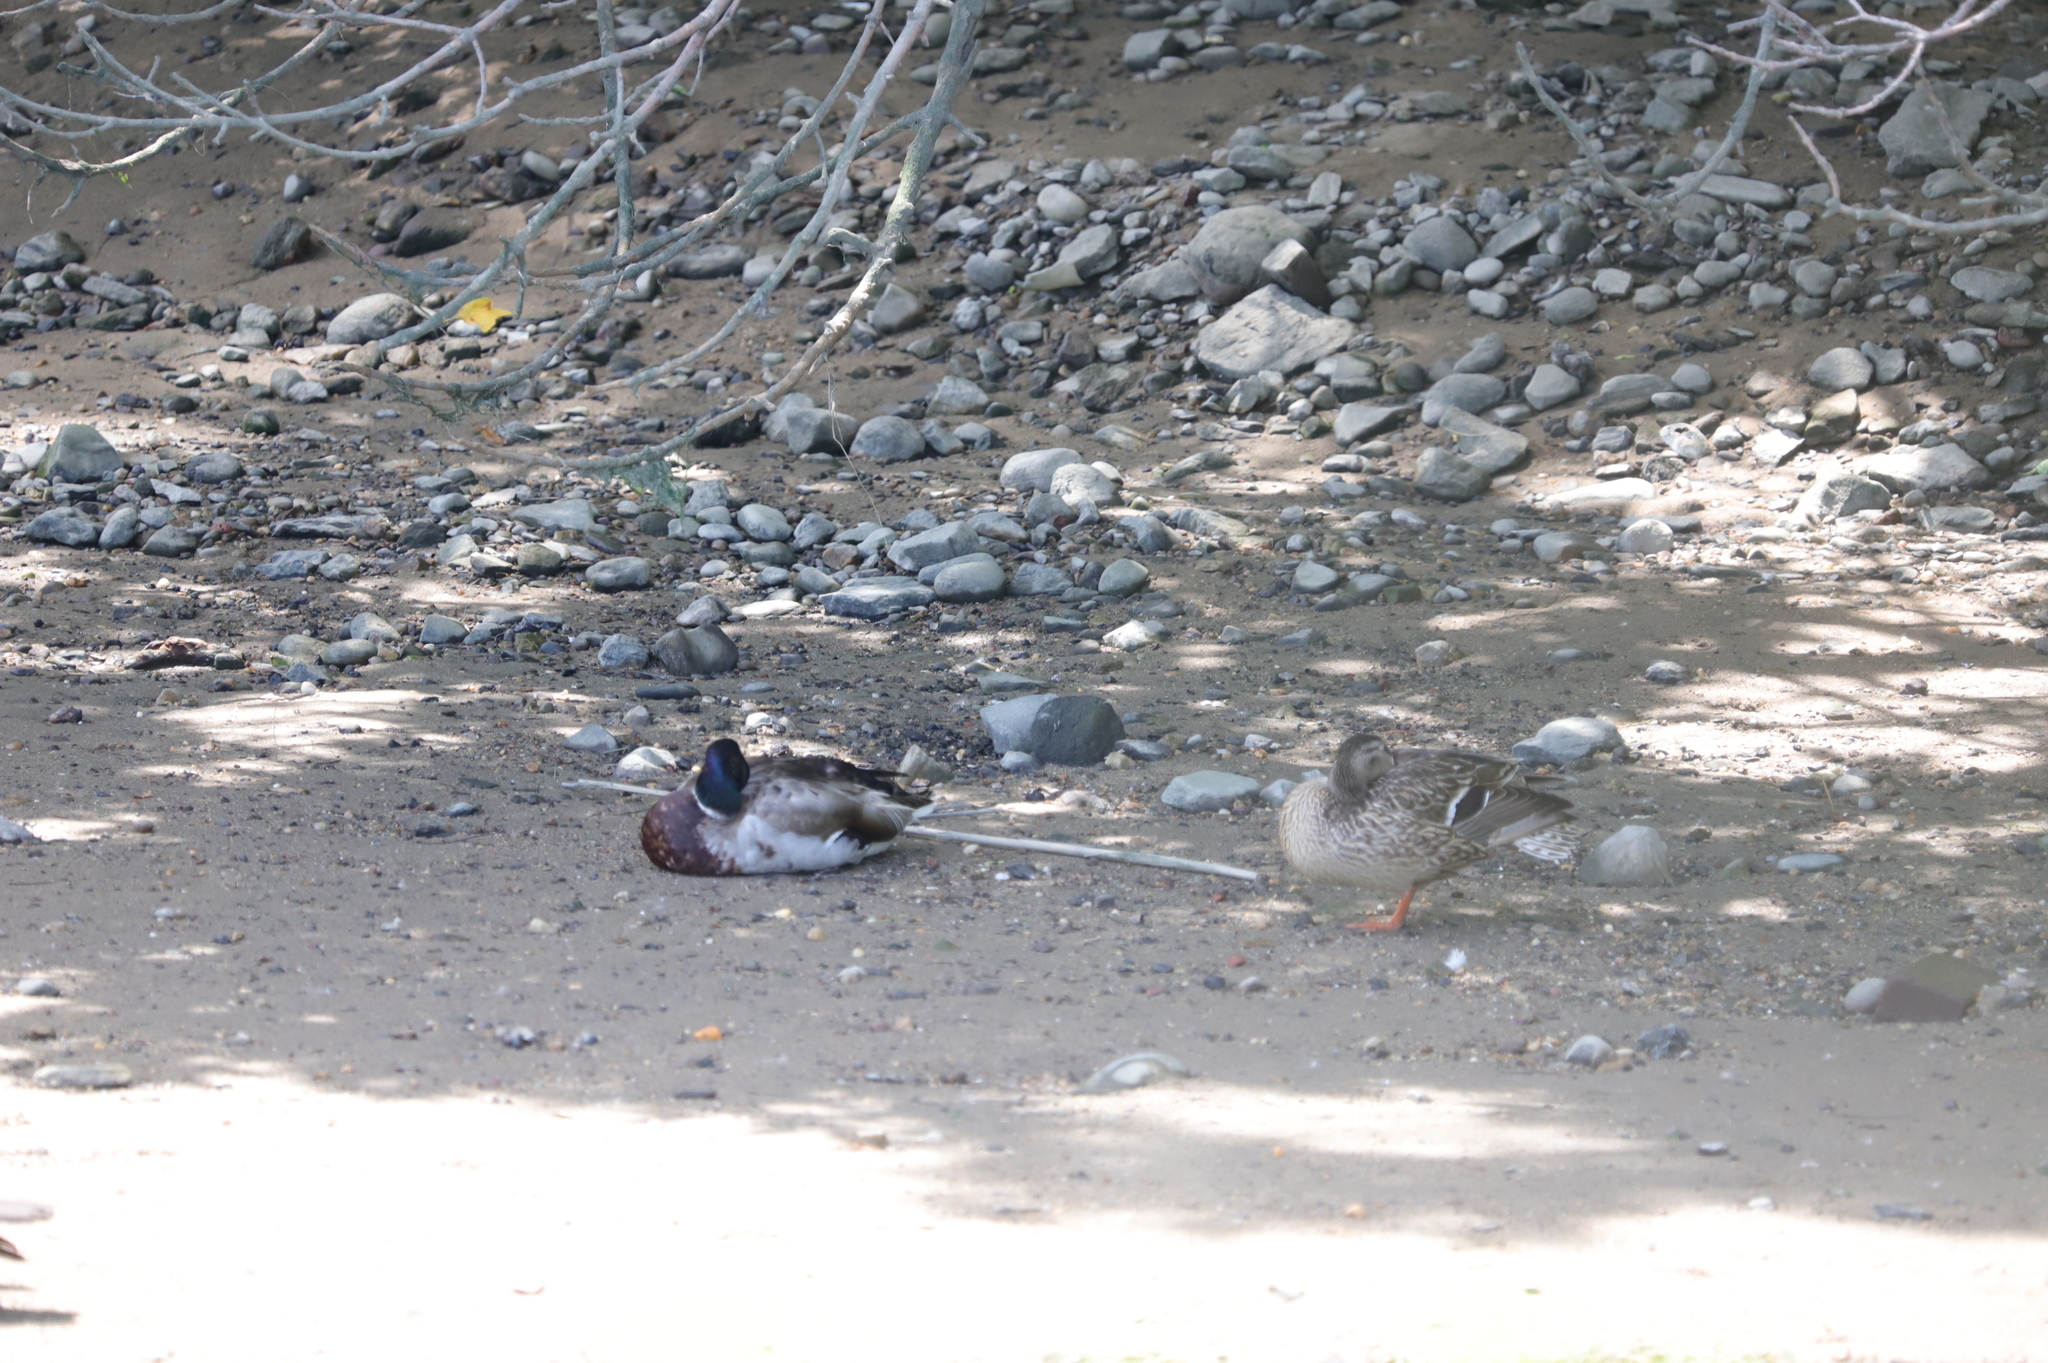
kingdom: Animalia
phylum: Chordata
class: Aves
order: Anseriformes
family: Anatidae
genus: Anas
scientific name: Anas platyrhynchos
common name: Mallard
